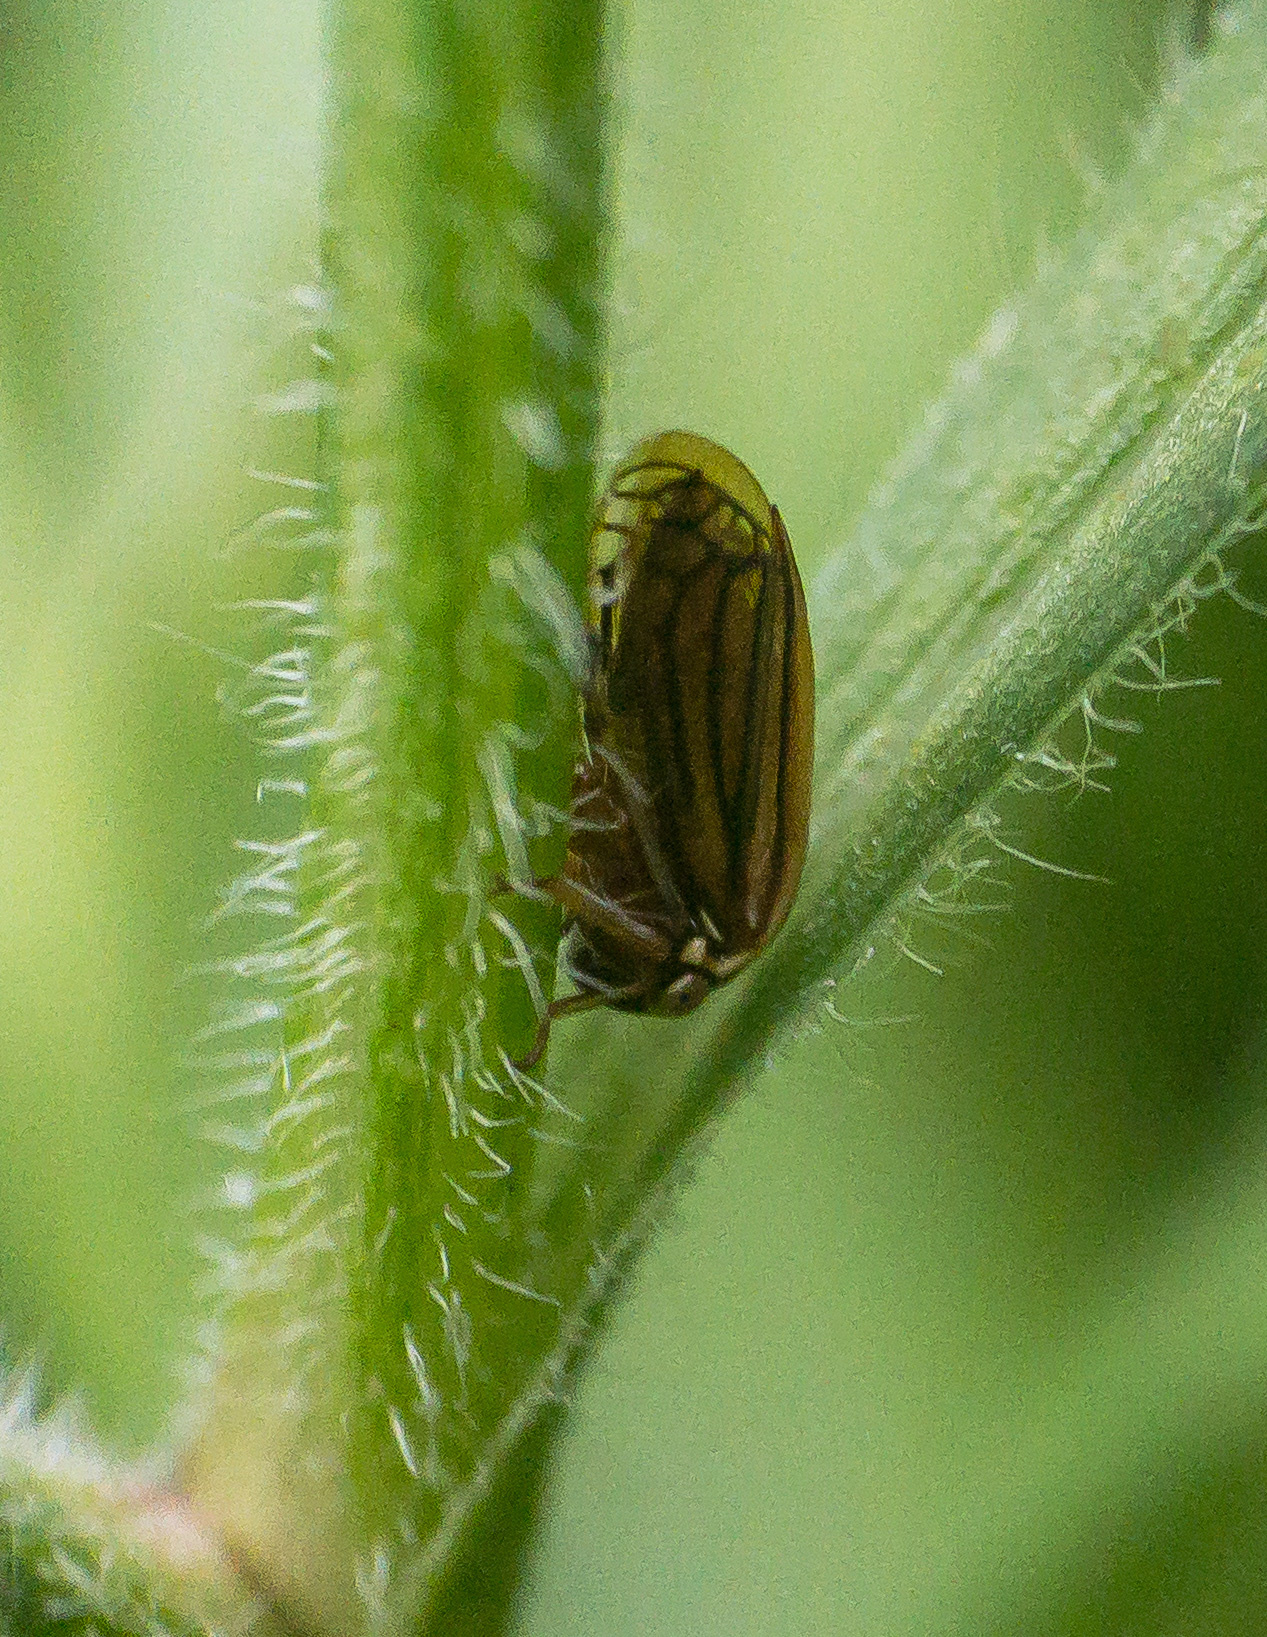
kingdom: Animalia
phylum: Arthropoda
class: Insecta
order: Hemiptera
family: Membracidae
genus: Acutalis
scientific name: Acutalis tartarea
